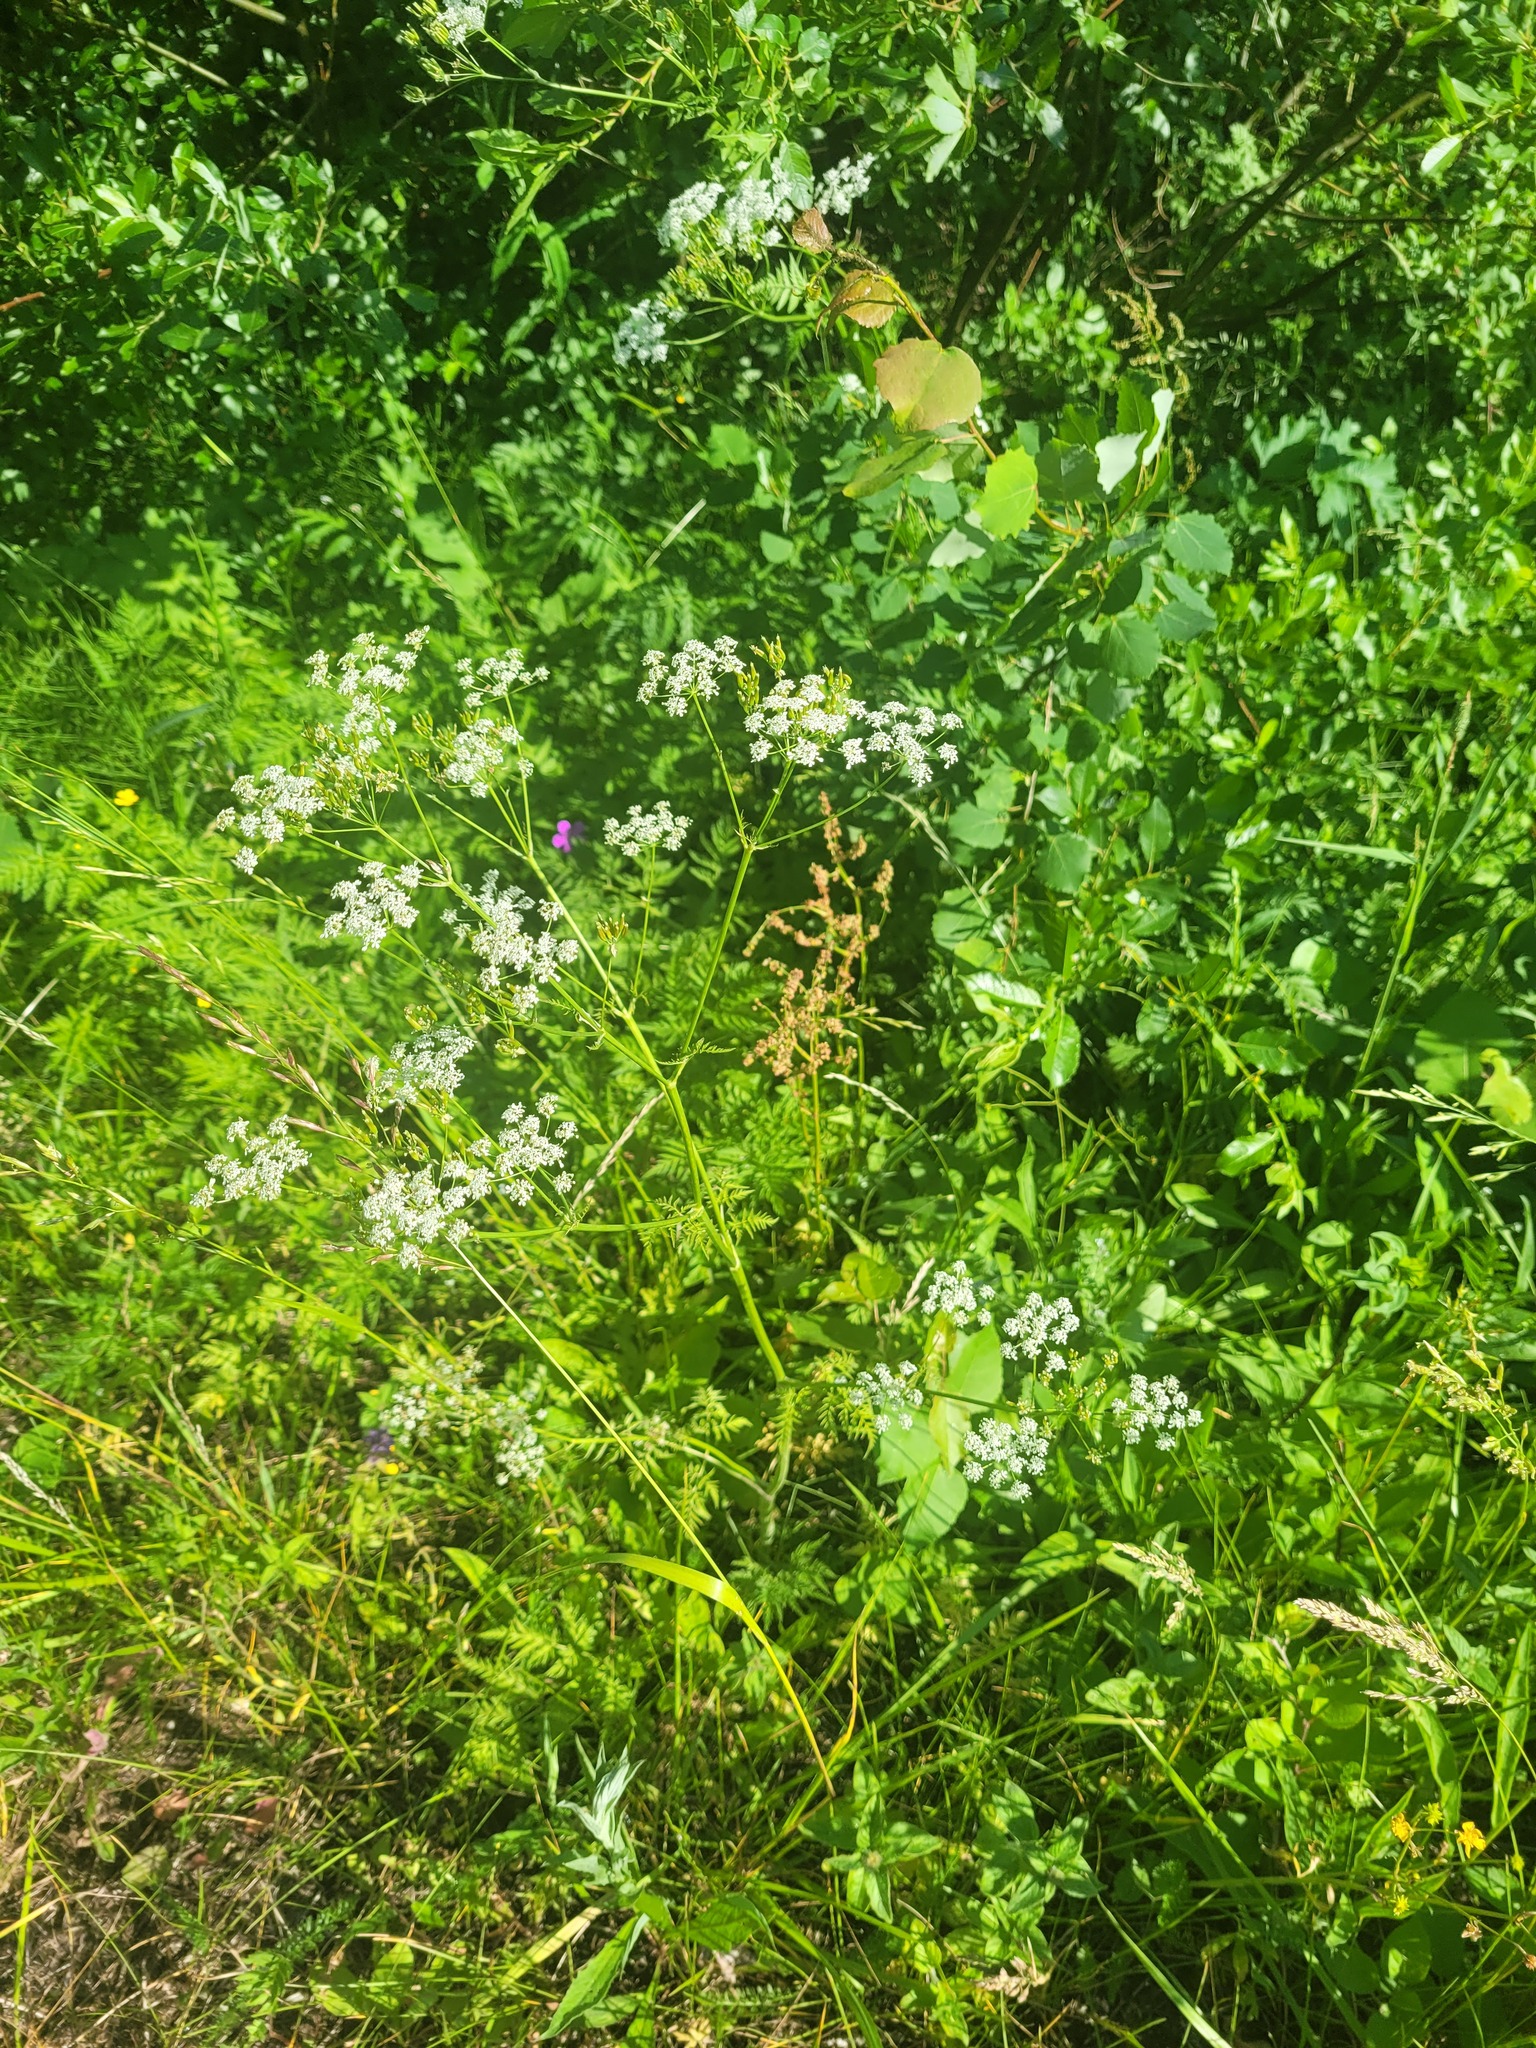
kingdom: Plantae
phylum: Tracheophyta
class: Magnoliopsida
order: Apiales
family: Apiaceae
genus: Anthriscus
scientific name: Anthriscus sylvestris
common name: Cow parsley
